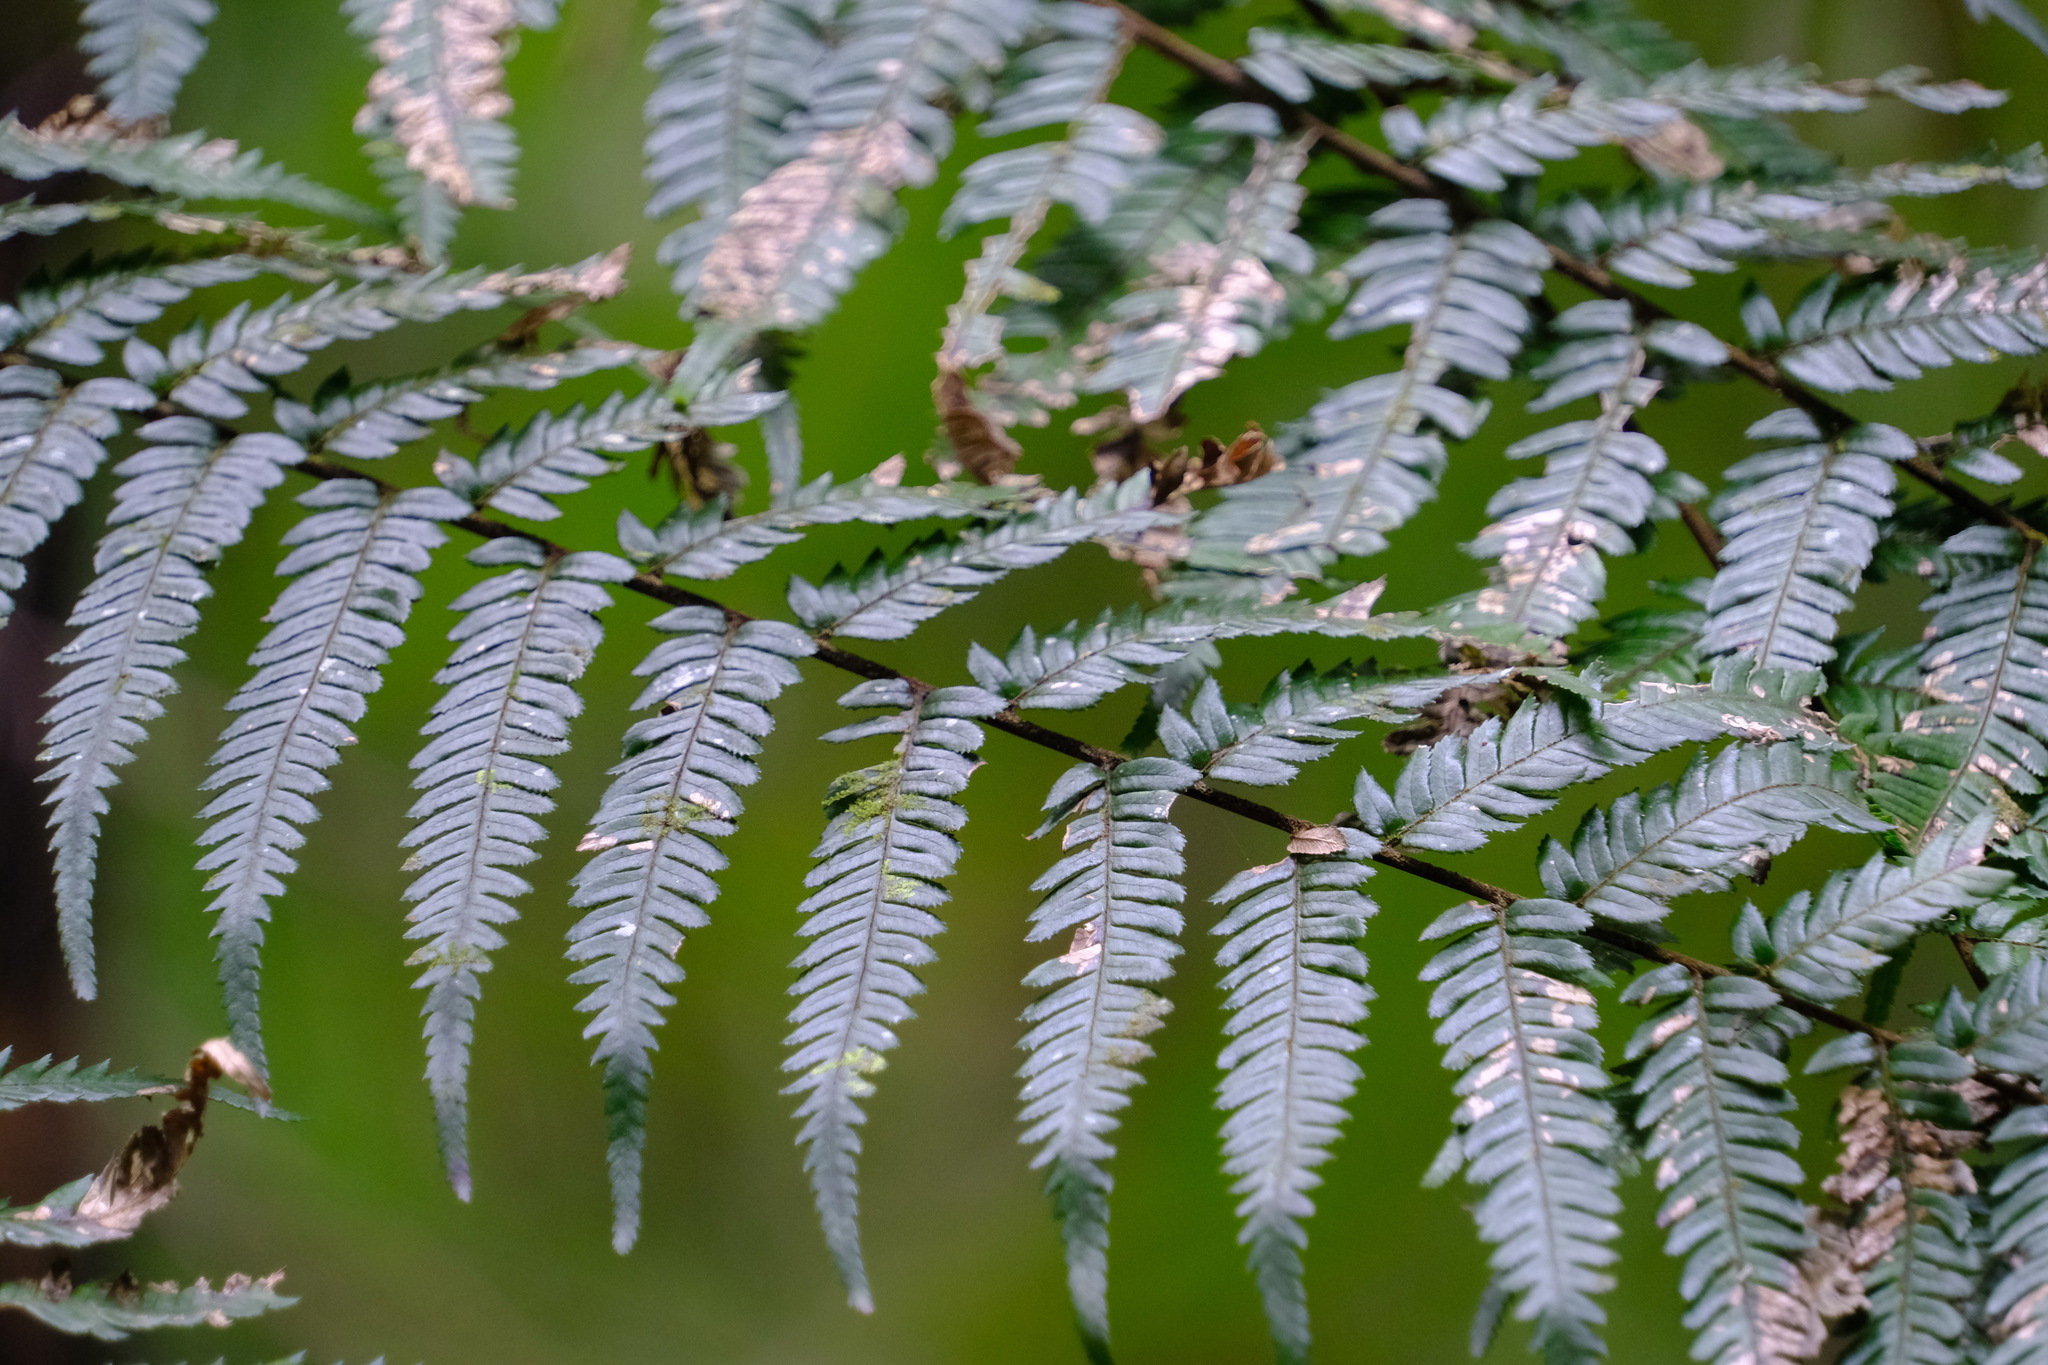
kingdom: Plantae
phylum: Tracheophyta
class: Polypodiopsida
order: Cyatheales
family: Cyatheaceae
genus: Alsophila
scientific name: Alsophila leichhardtiana
